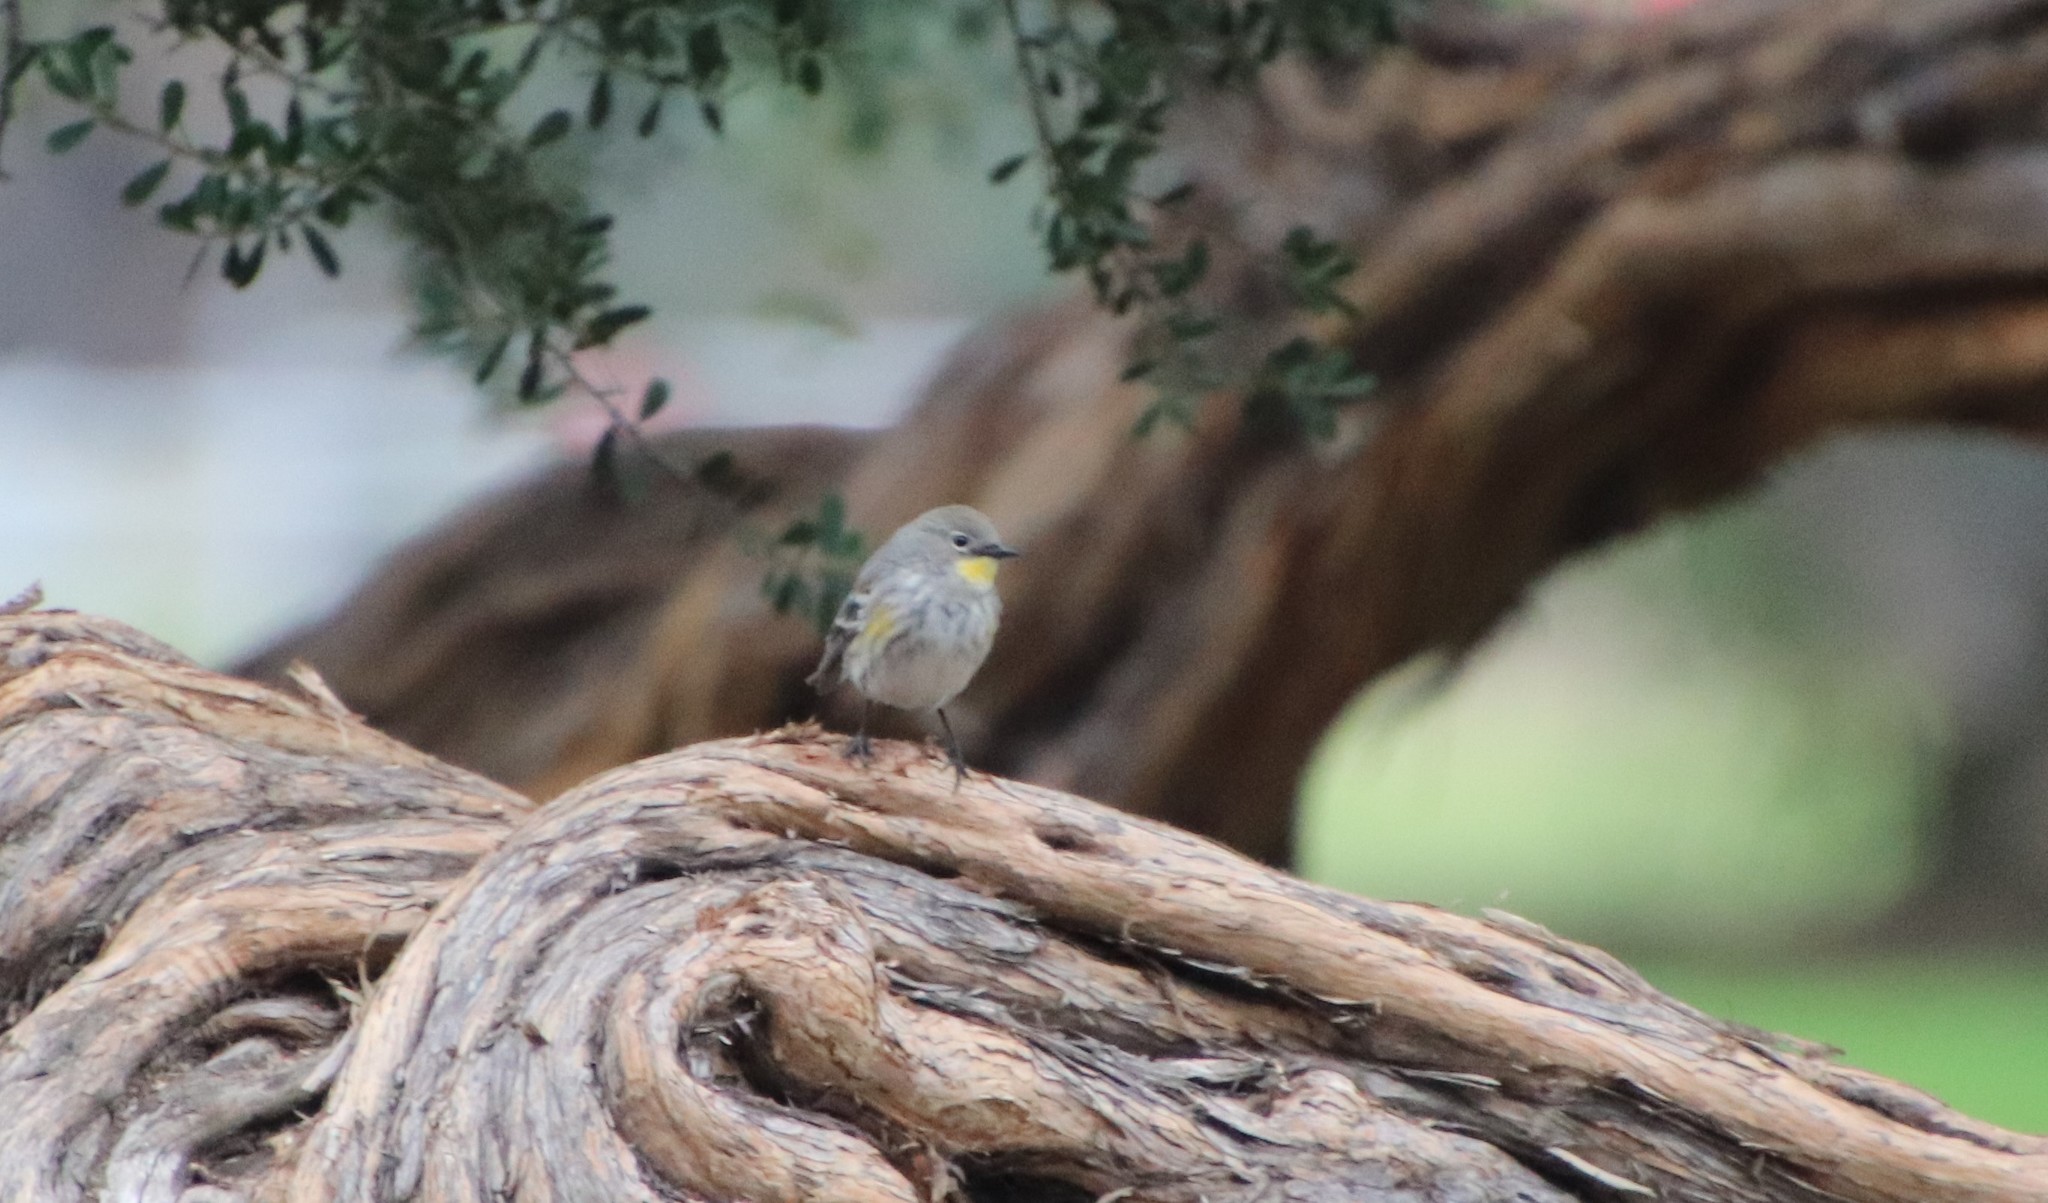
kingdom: Animalia
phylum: Chordata
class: Aves
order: Passeriformes
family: Parulidae
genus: Setophaga
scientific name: Setophaga auduboni
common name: Audubon's warbler
